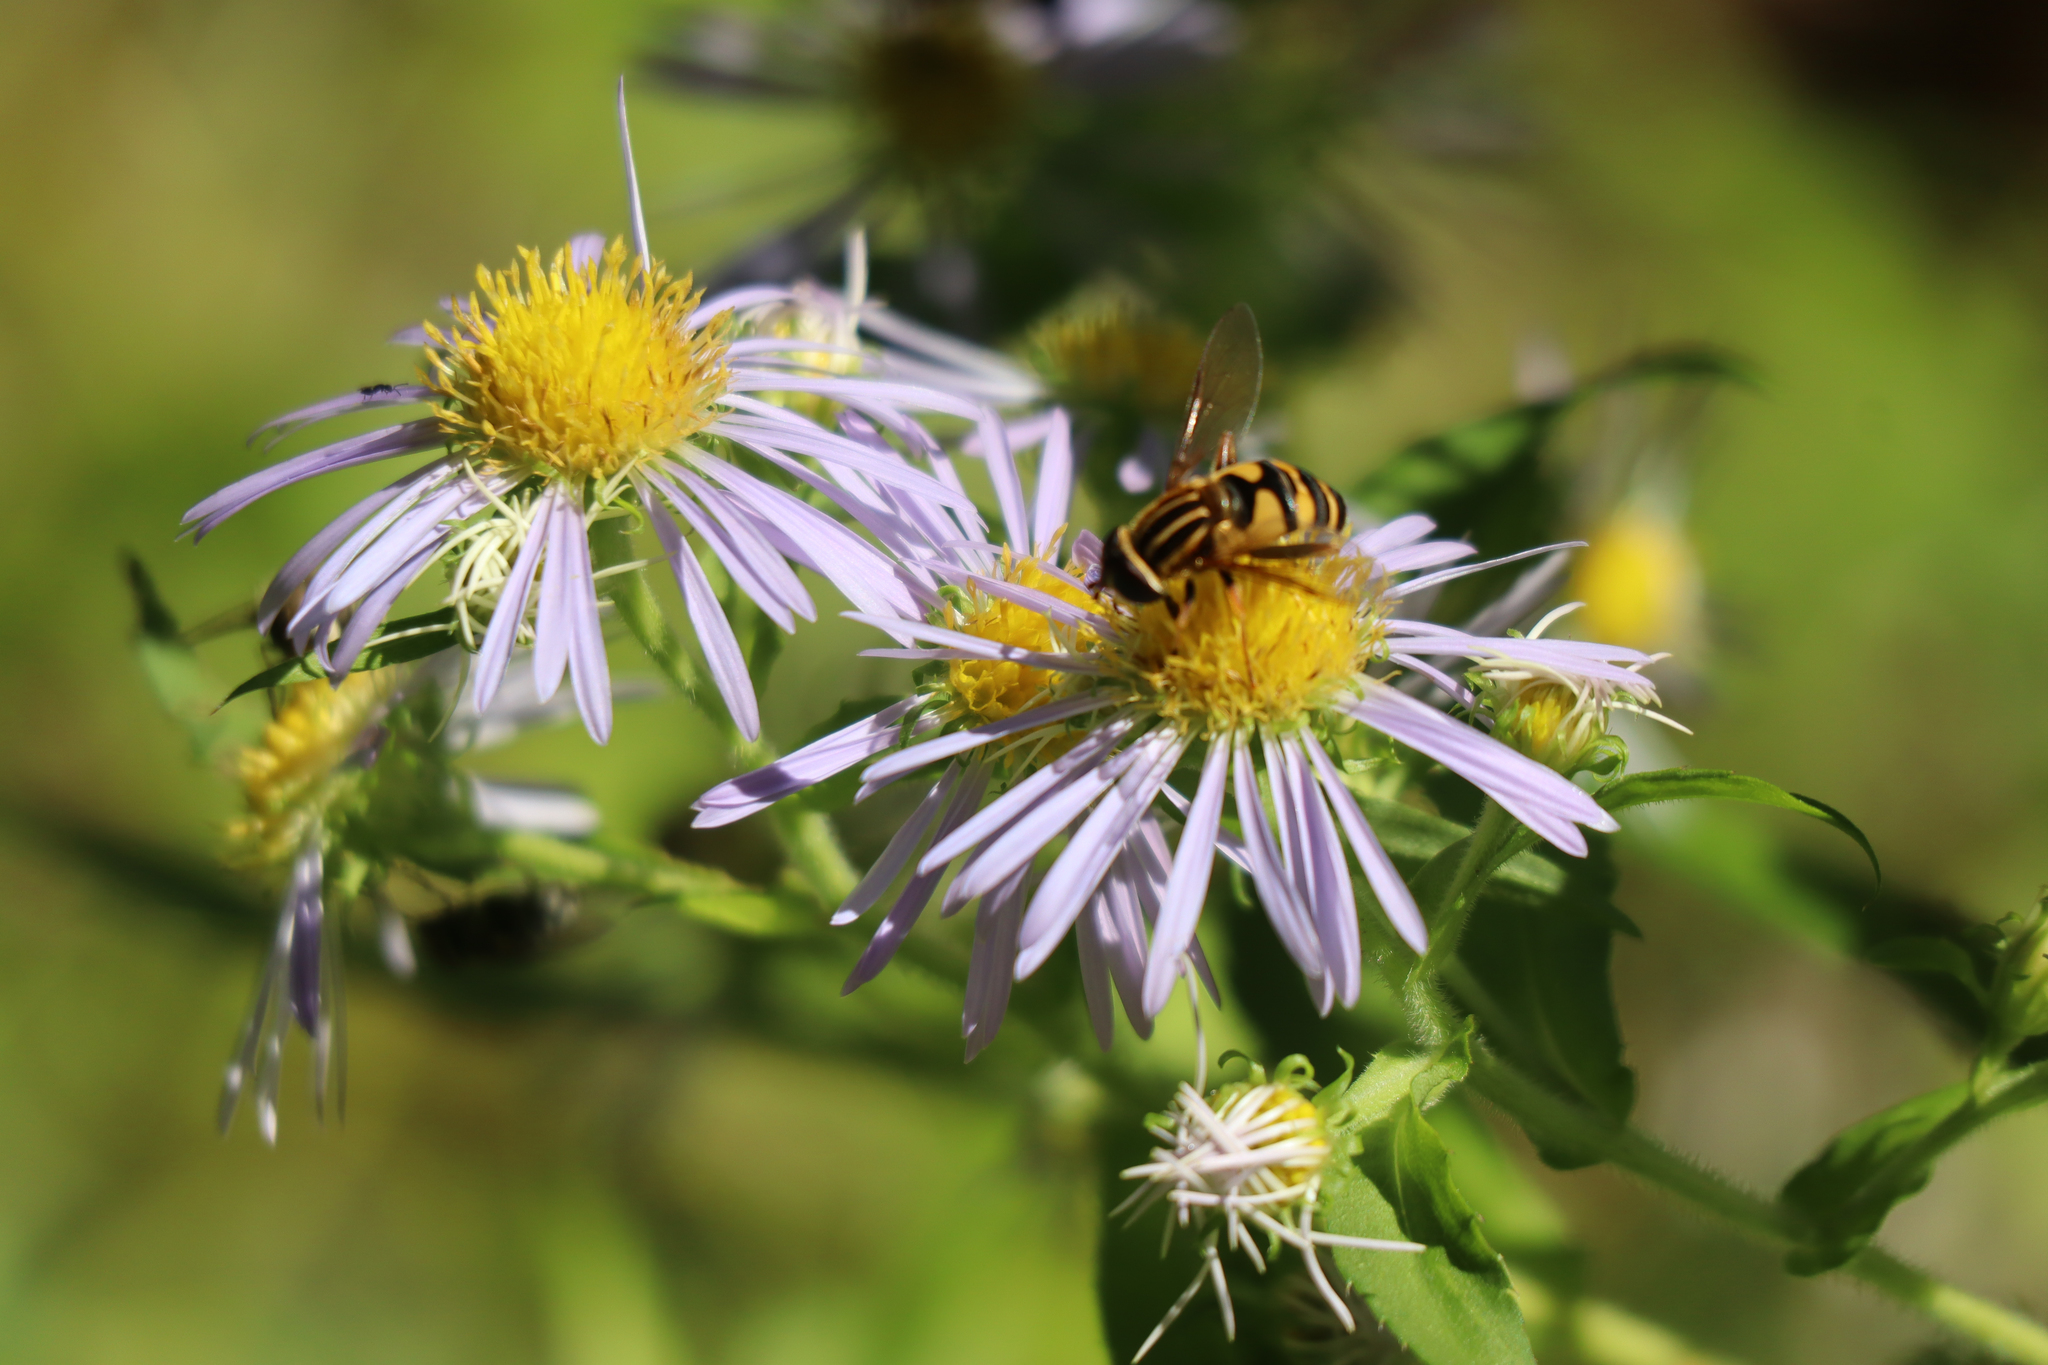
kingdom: Animalia
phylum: Arthropoda
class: Insecta
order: Diptera
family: Syrphidae
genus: Helophilus
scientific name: Helophilus fasciatus
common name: Narrow-headed marsh fly
